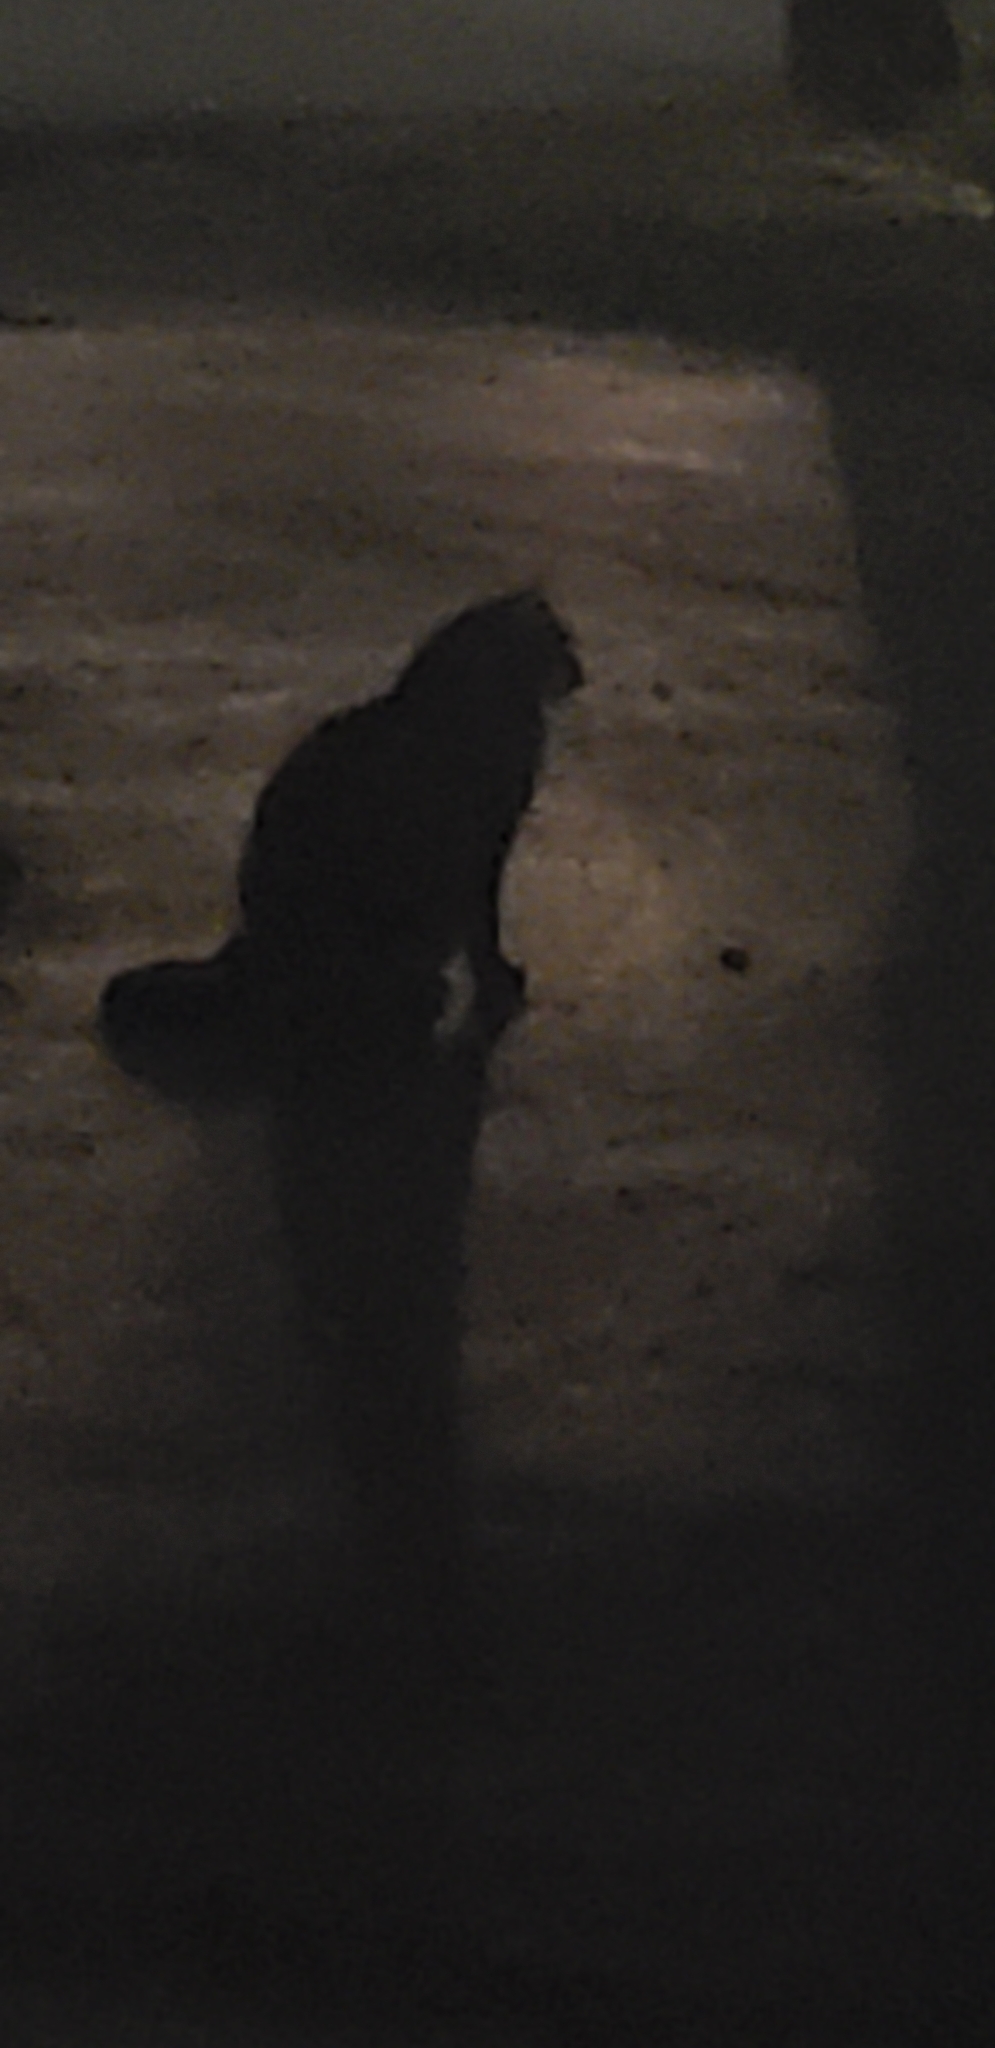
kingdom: Animalia
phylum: Chordata
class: Mammalia
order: Carnivora
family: Felidae
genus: Felis
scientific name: Felis catus
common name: Domestic cat
